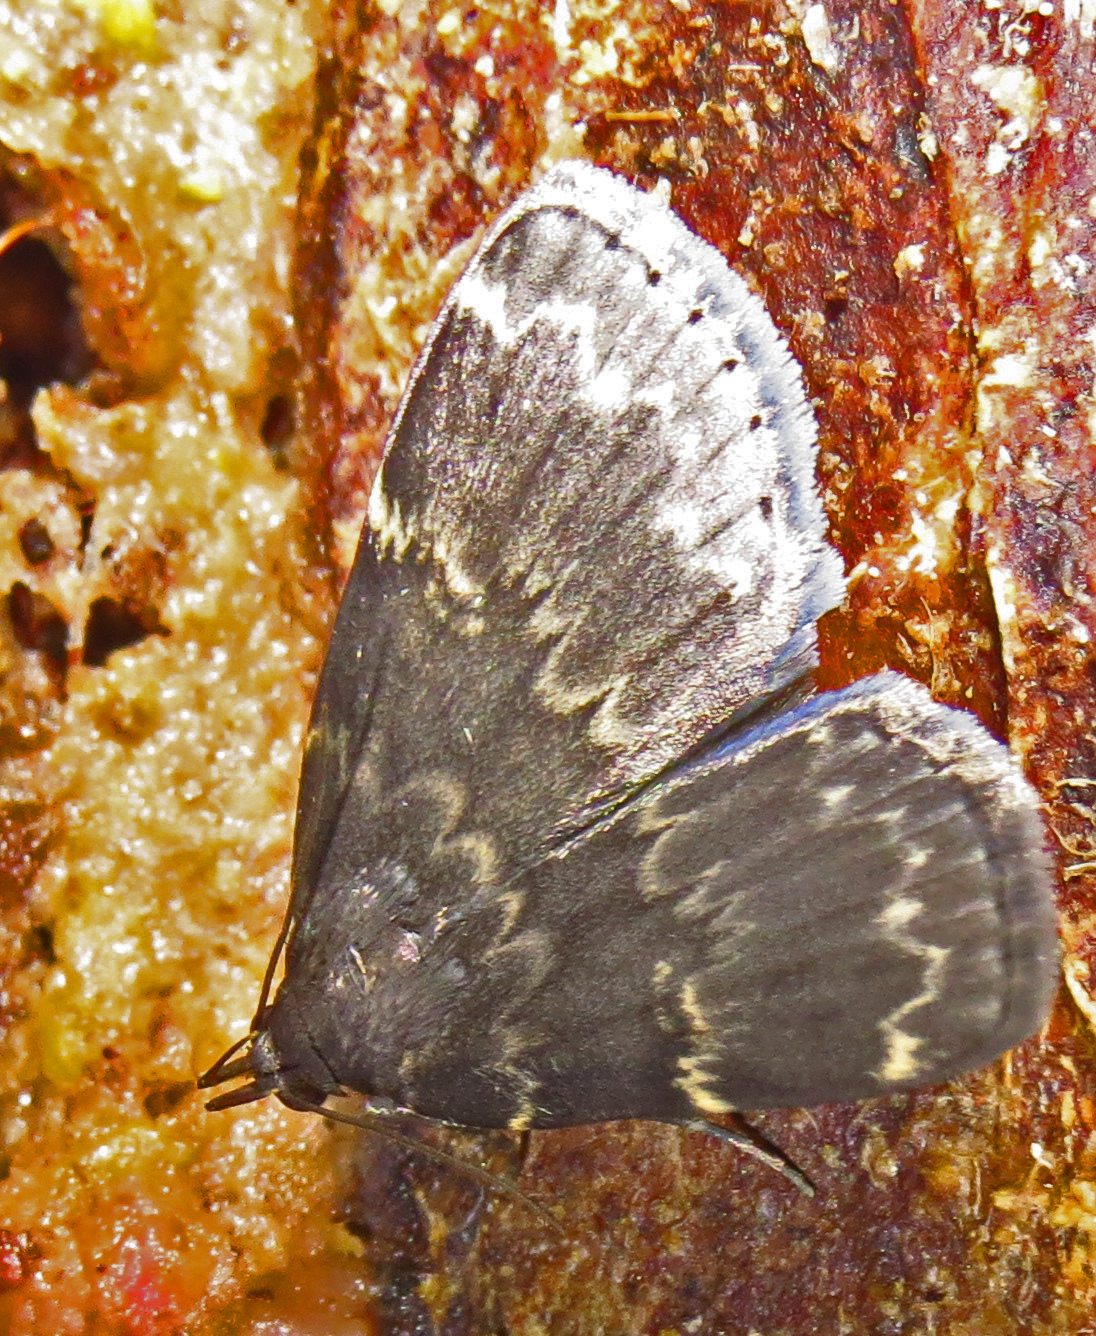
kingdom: Animalia
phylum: Arthropoda
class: Insecta
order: Lepidoptera
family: Erebidae
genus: Idia
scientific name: Idia lubricalis
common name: Twin-striped tabby
